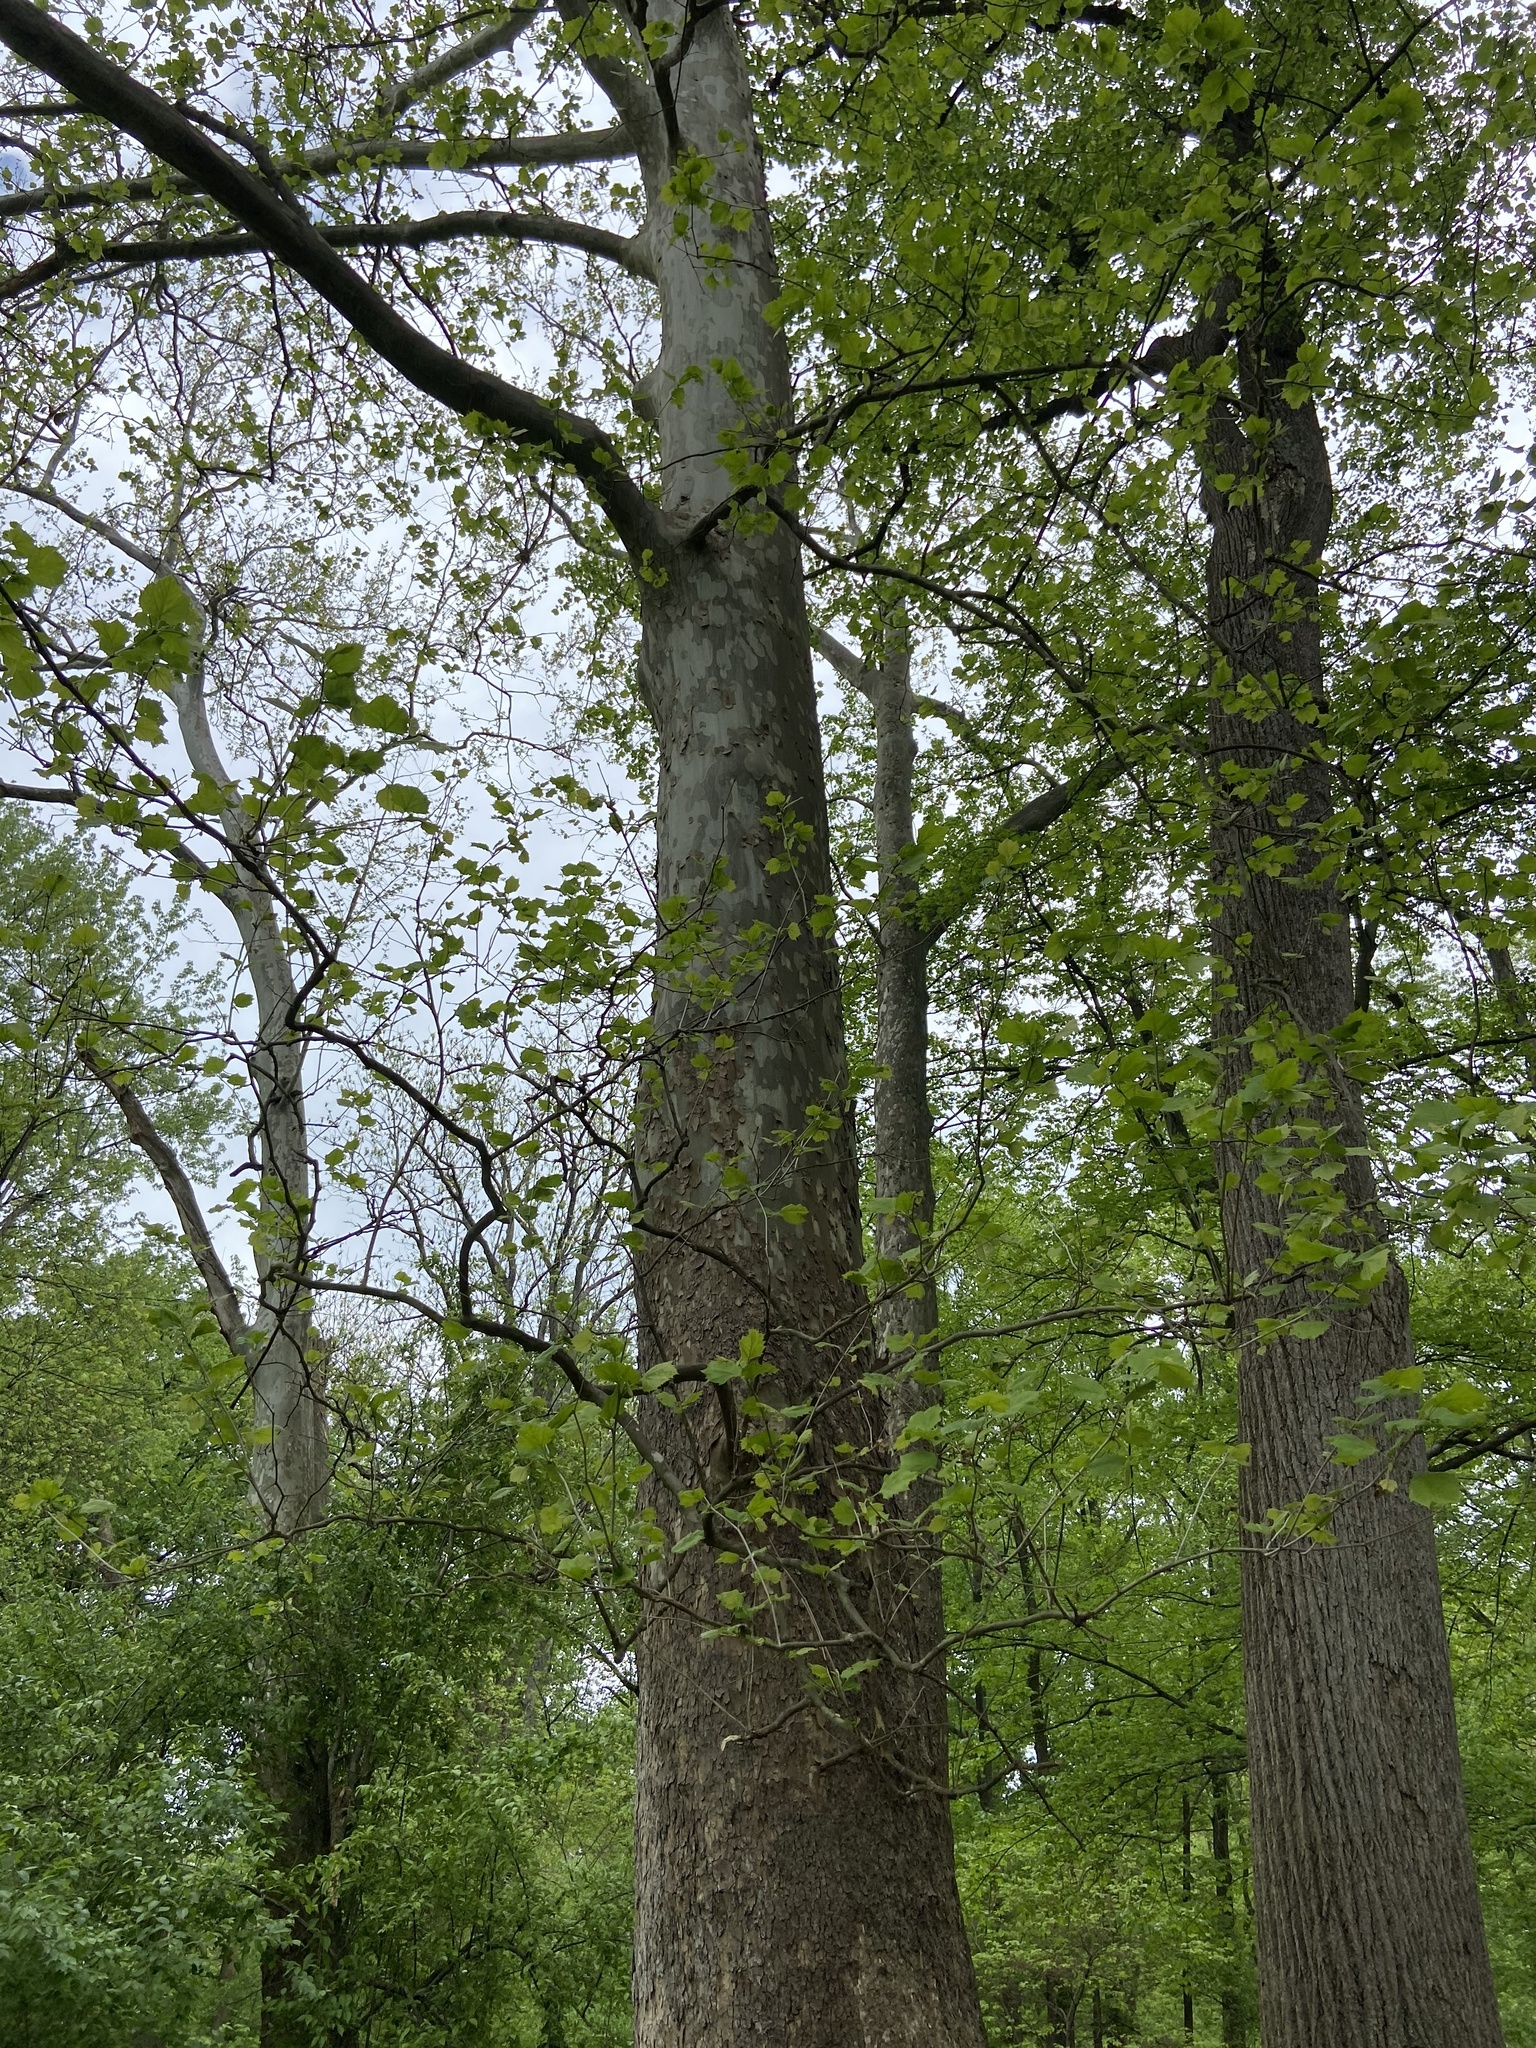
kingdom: Plantae
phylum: Tracheophyta
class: Magnoliopsida
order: Proteales
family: Platanaceae
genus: Platanus
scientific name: Platanus occidentalis
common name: American sycamore
